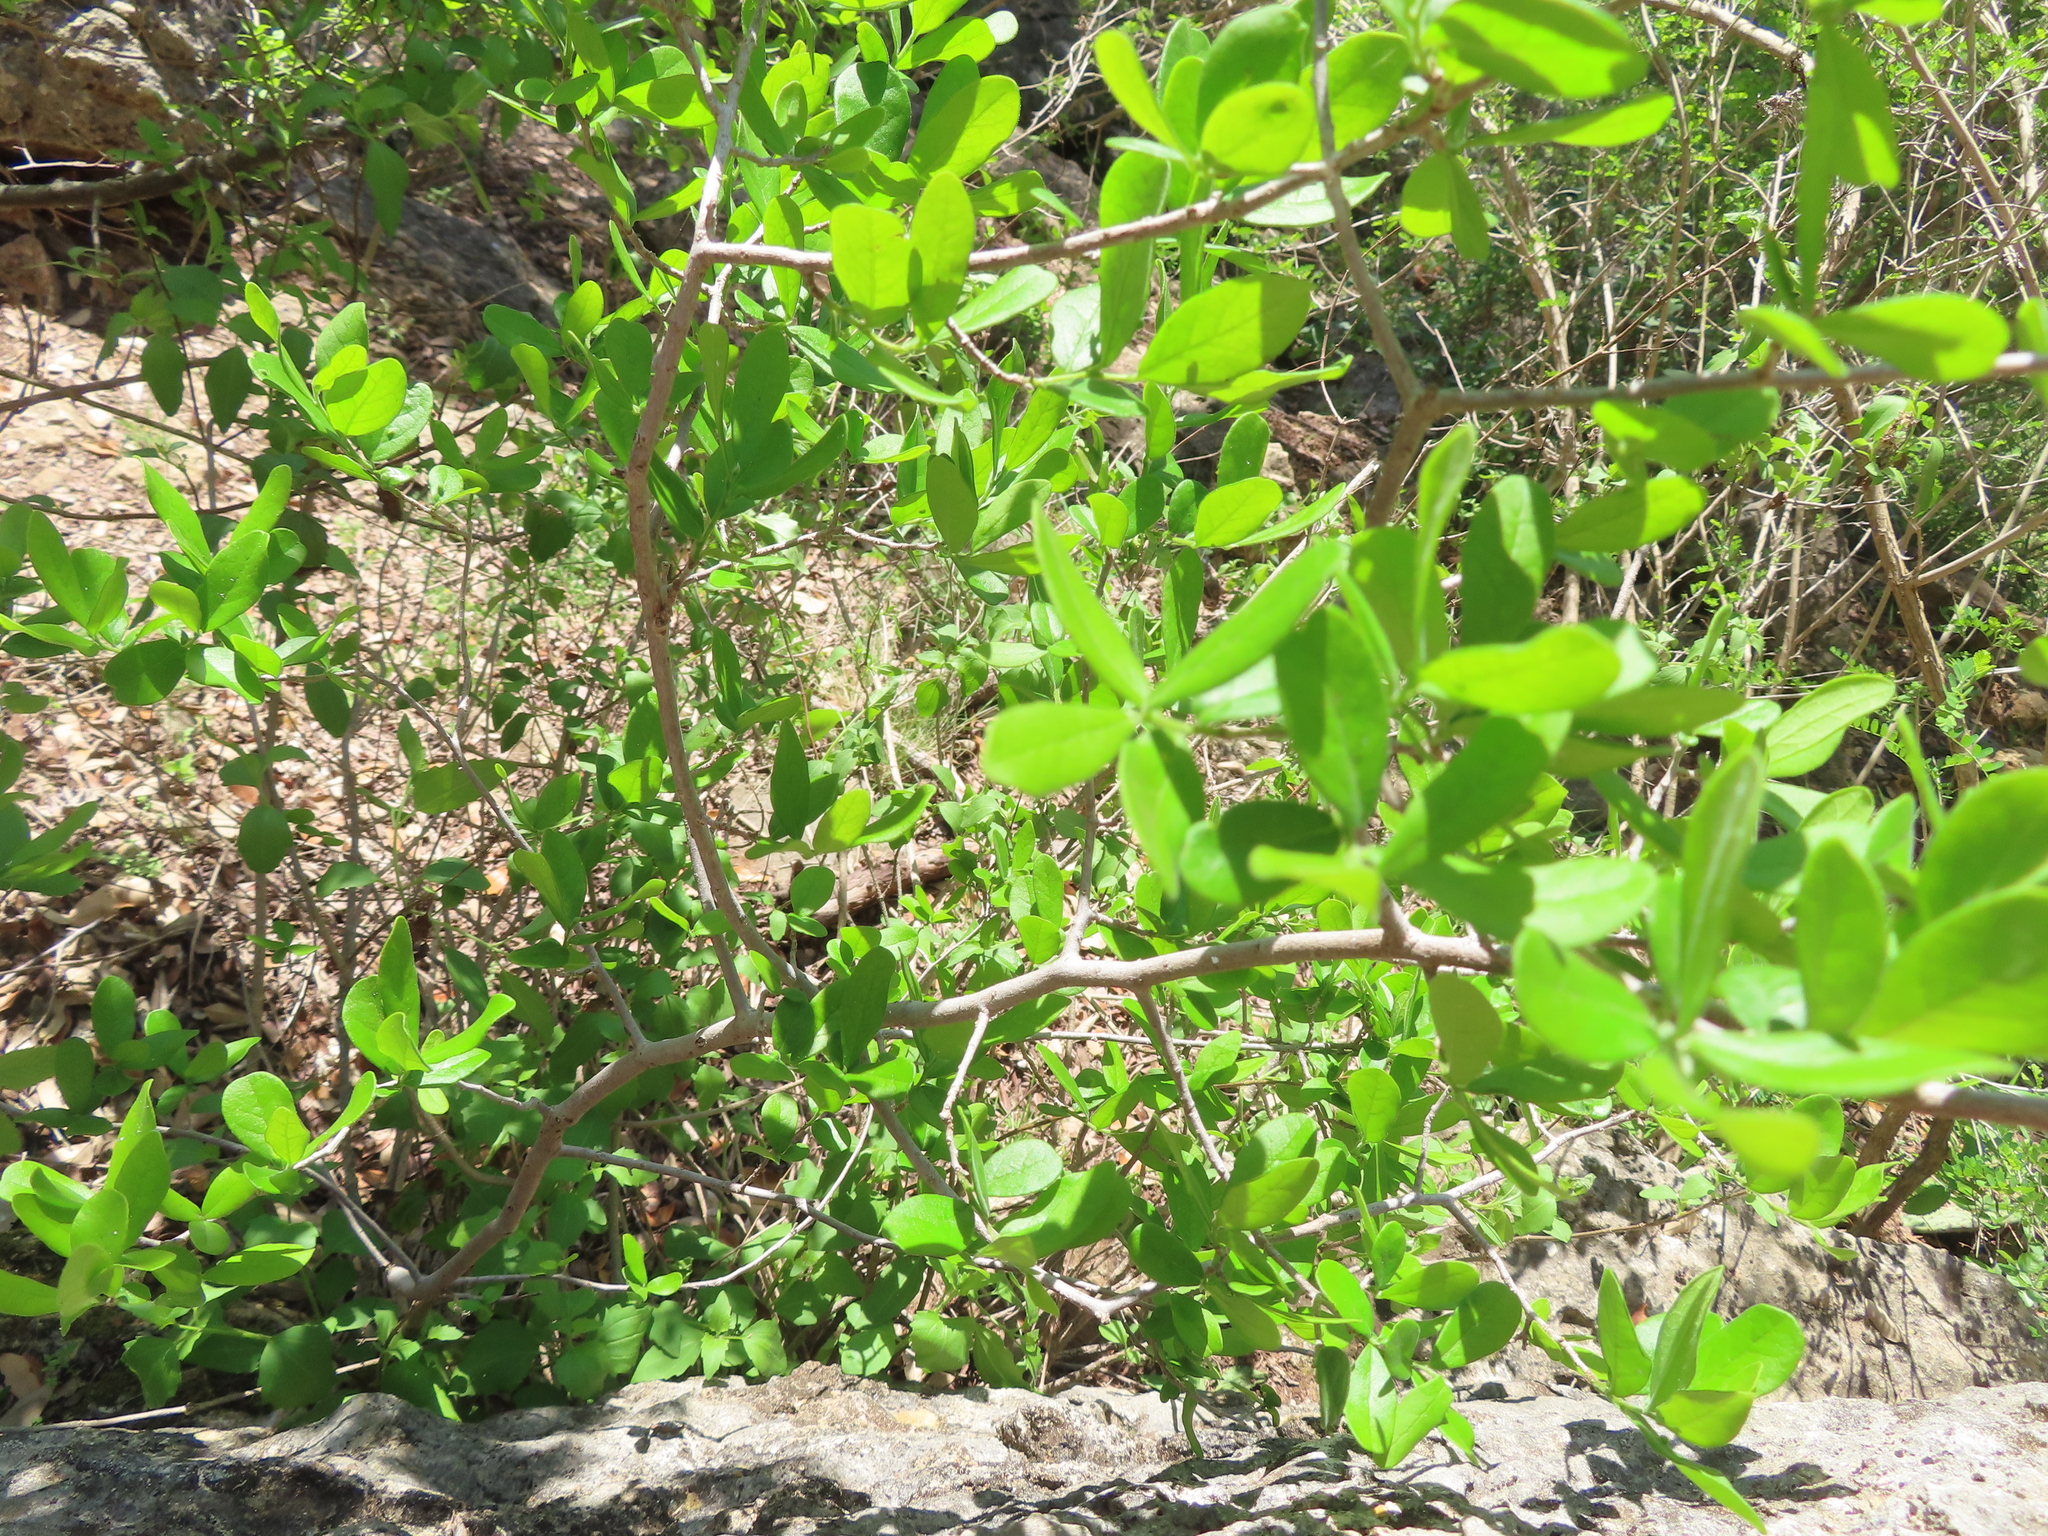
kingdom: Plantae
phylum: Tracheophyta
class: Magnoliopsida
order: Ericales
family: Ebenaceae
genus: Diospyros
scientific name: Diospyros texana
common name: Texas persimmon
